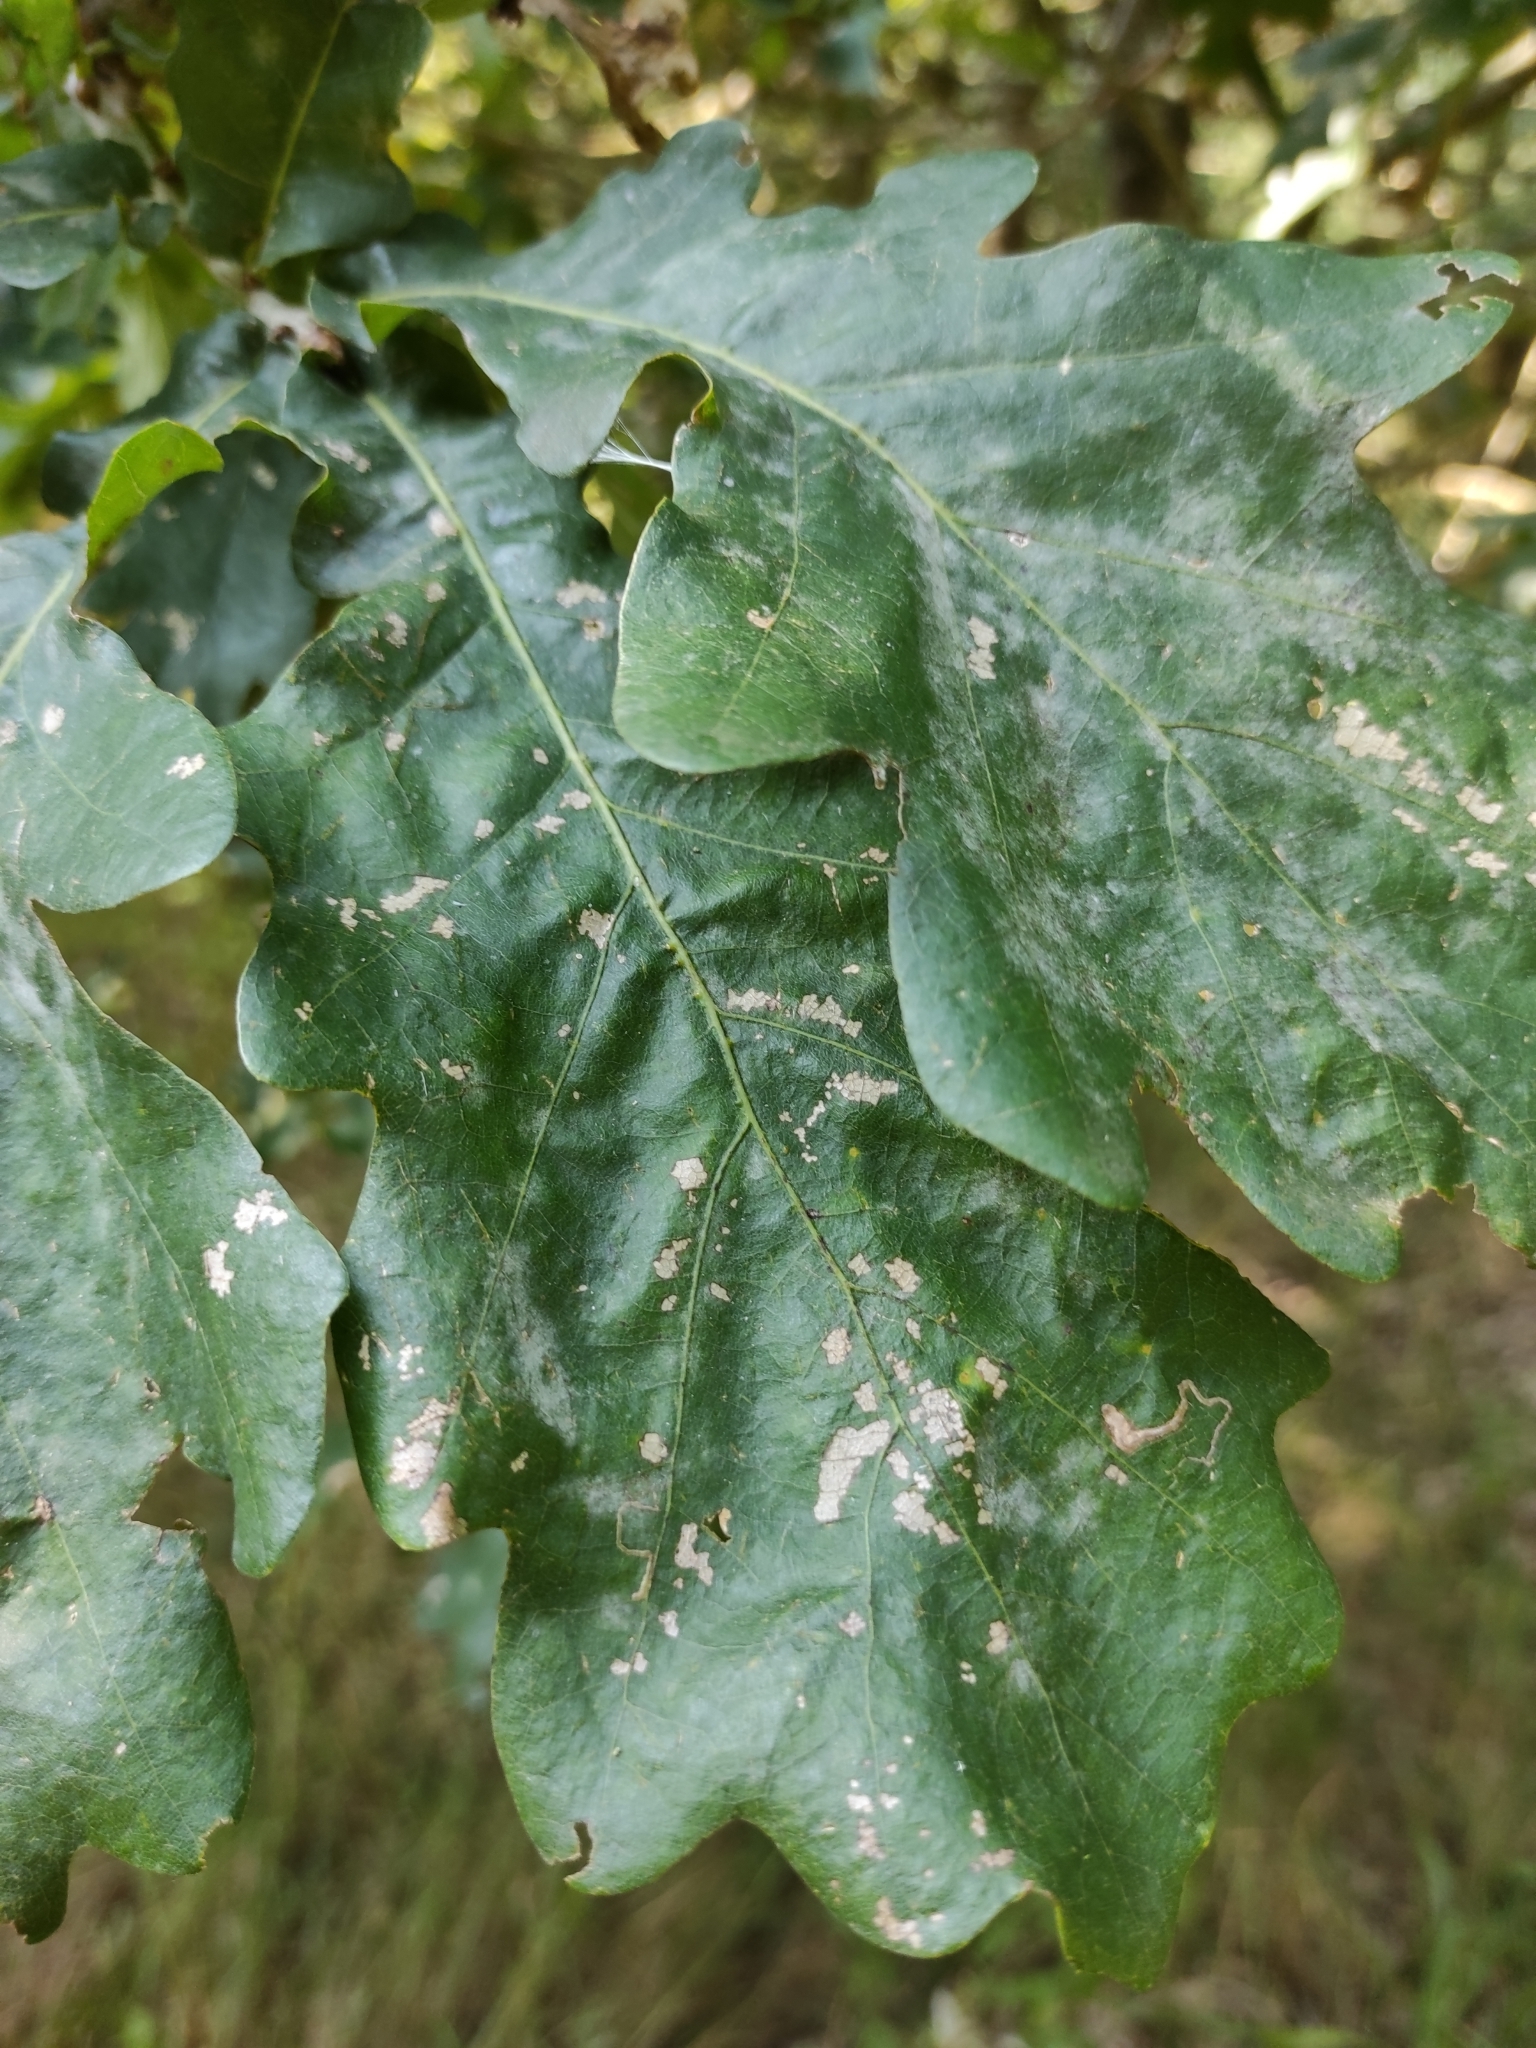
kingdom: Fungi
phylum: Ascomycota
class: Leotiomycetes
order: Helotiales
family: Erysiphaceae
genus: Erysiphe
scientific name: Erysiphe alphitoides
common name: Oak mildew
